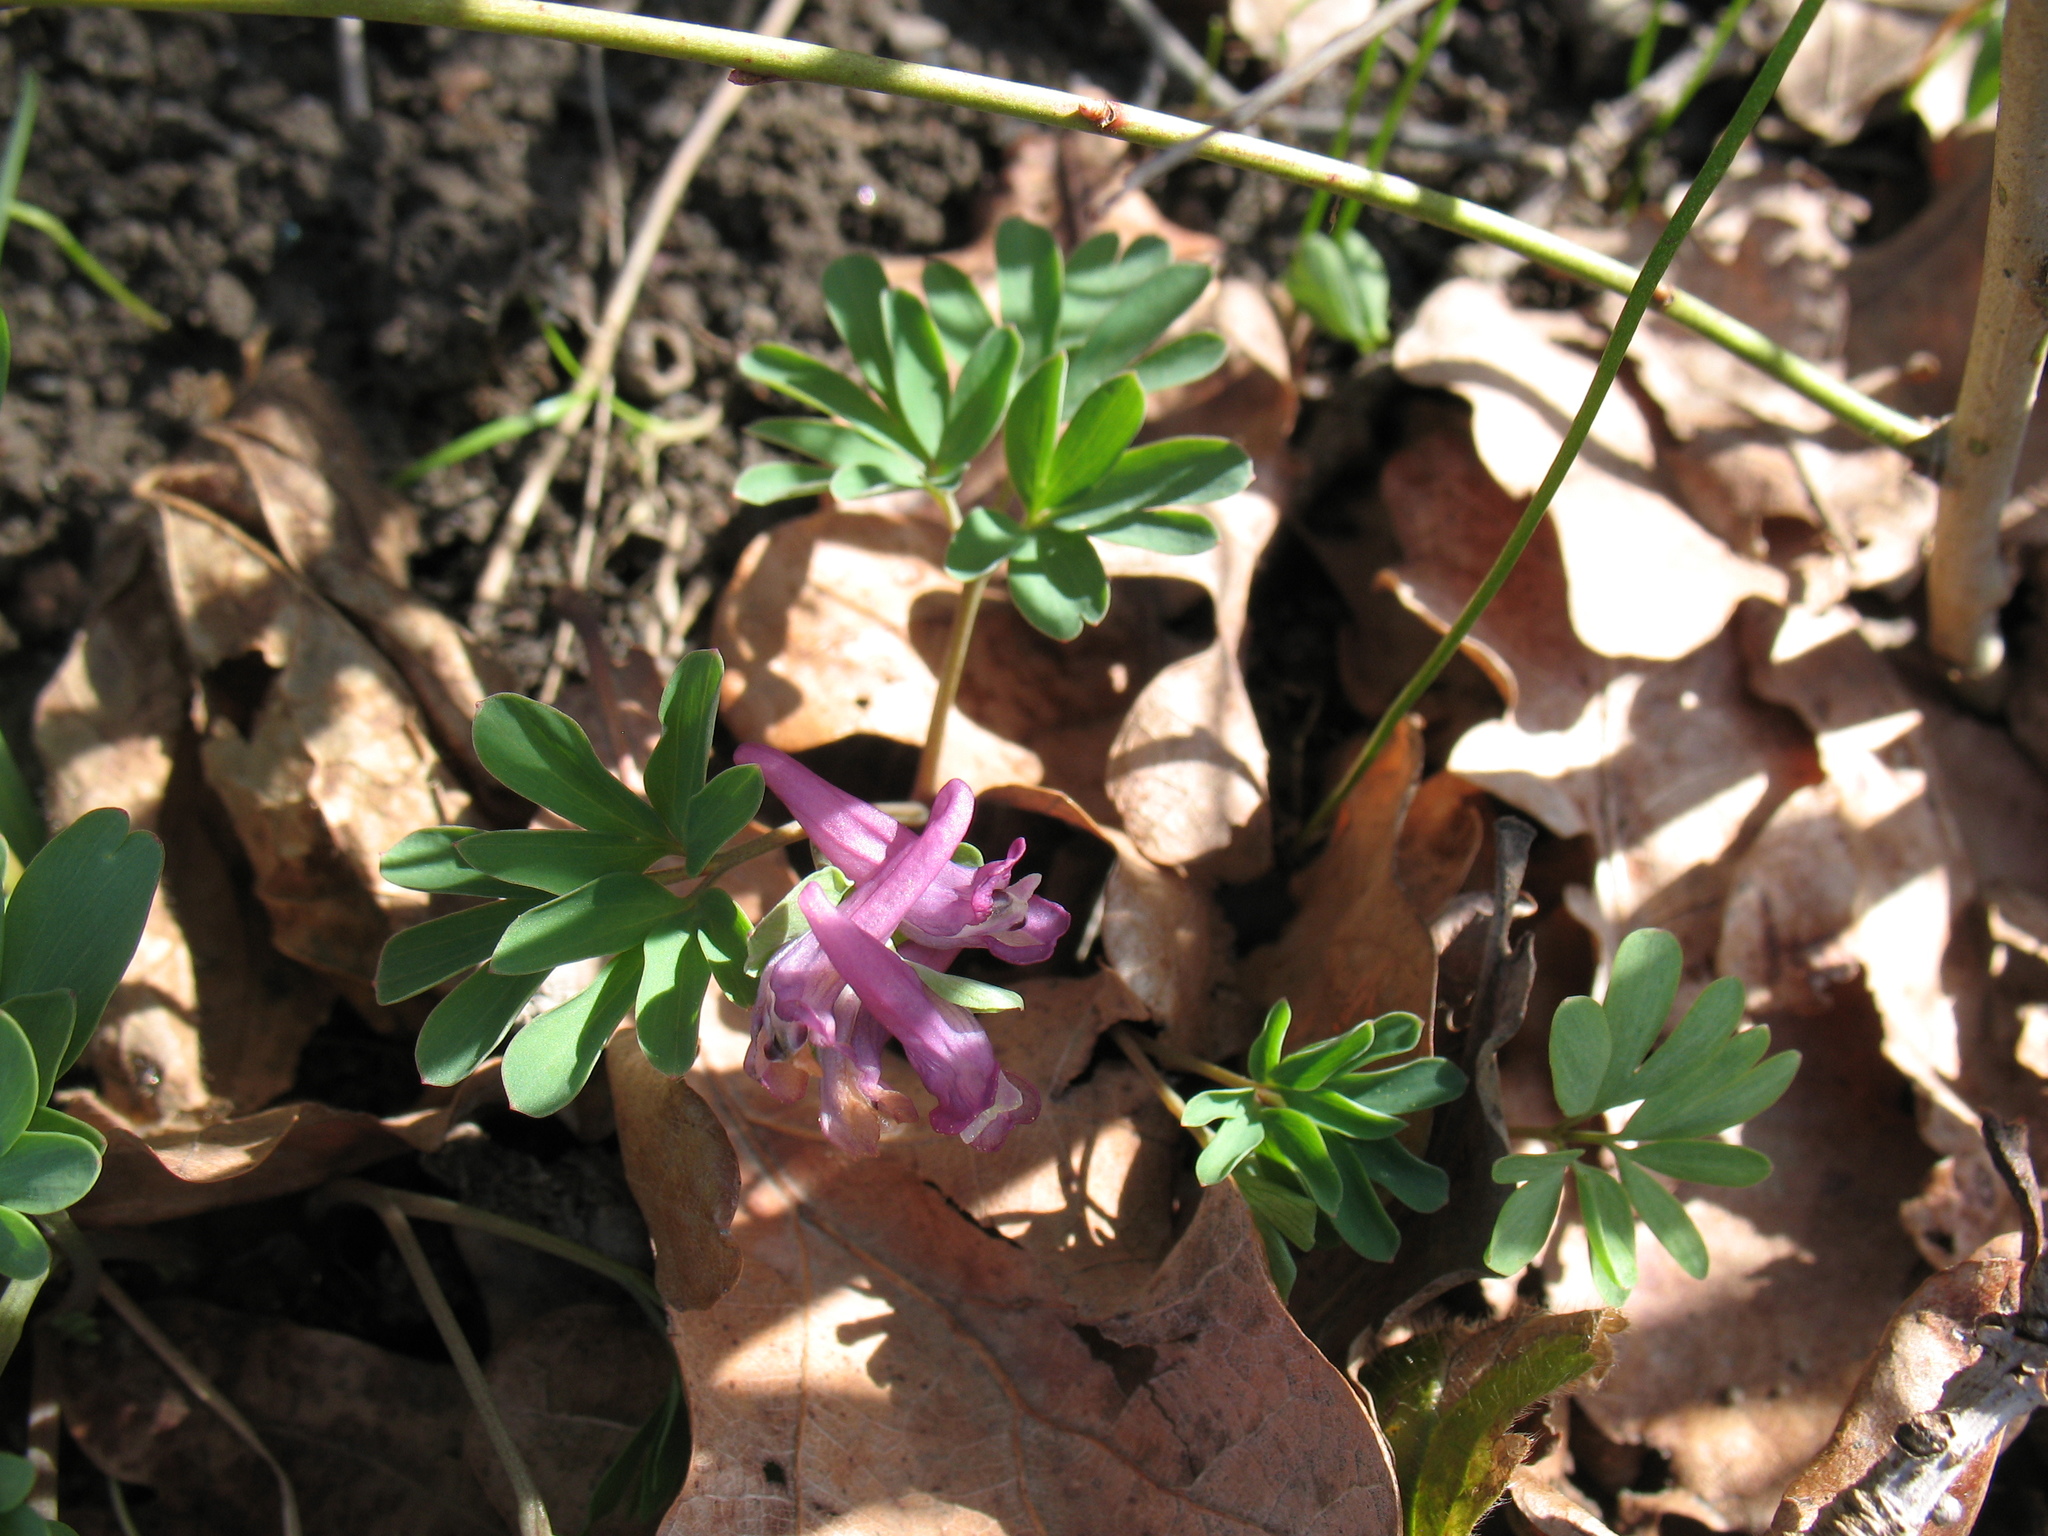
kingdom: Plantae
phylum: Tracheophyta
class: Magnoliopsida
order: Ranunculales
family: Papaveraceae
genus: Corydalis
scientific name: Corydalis intermedia
